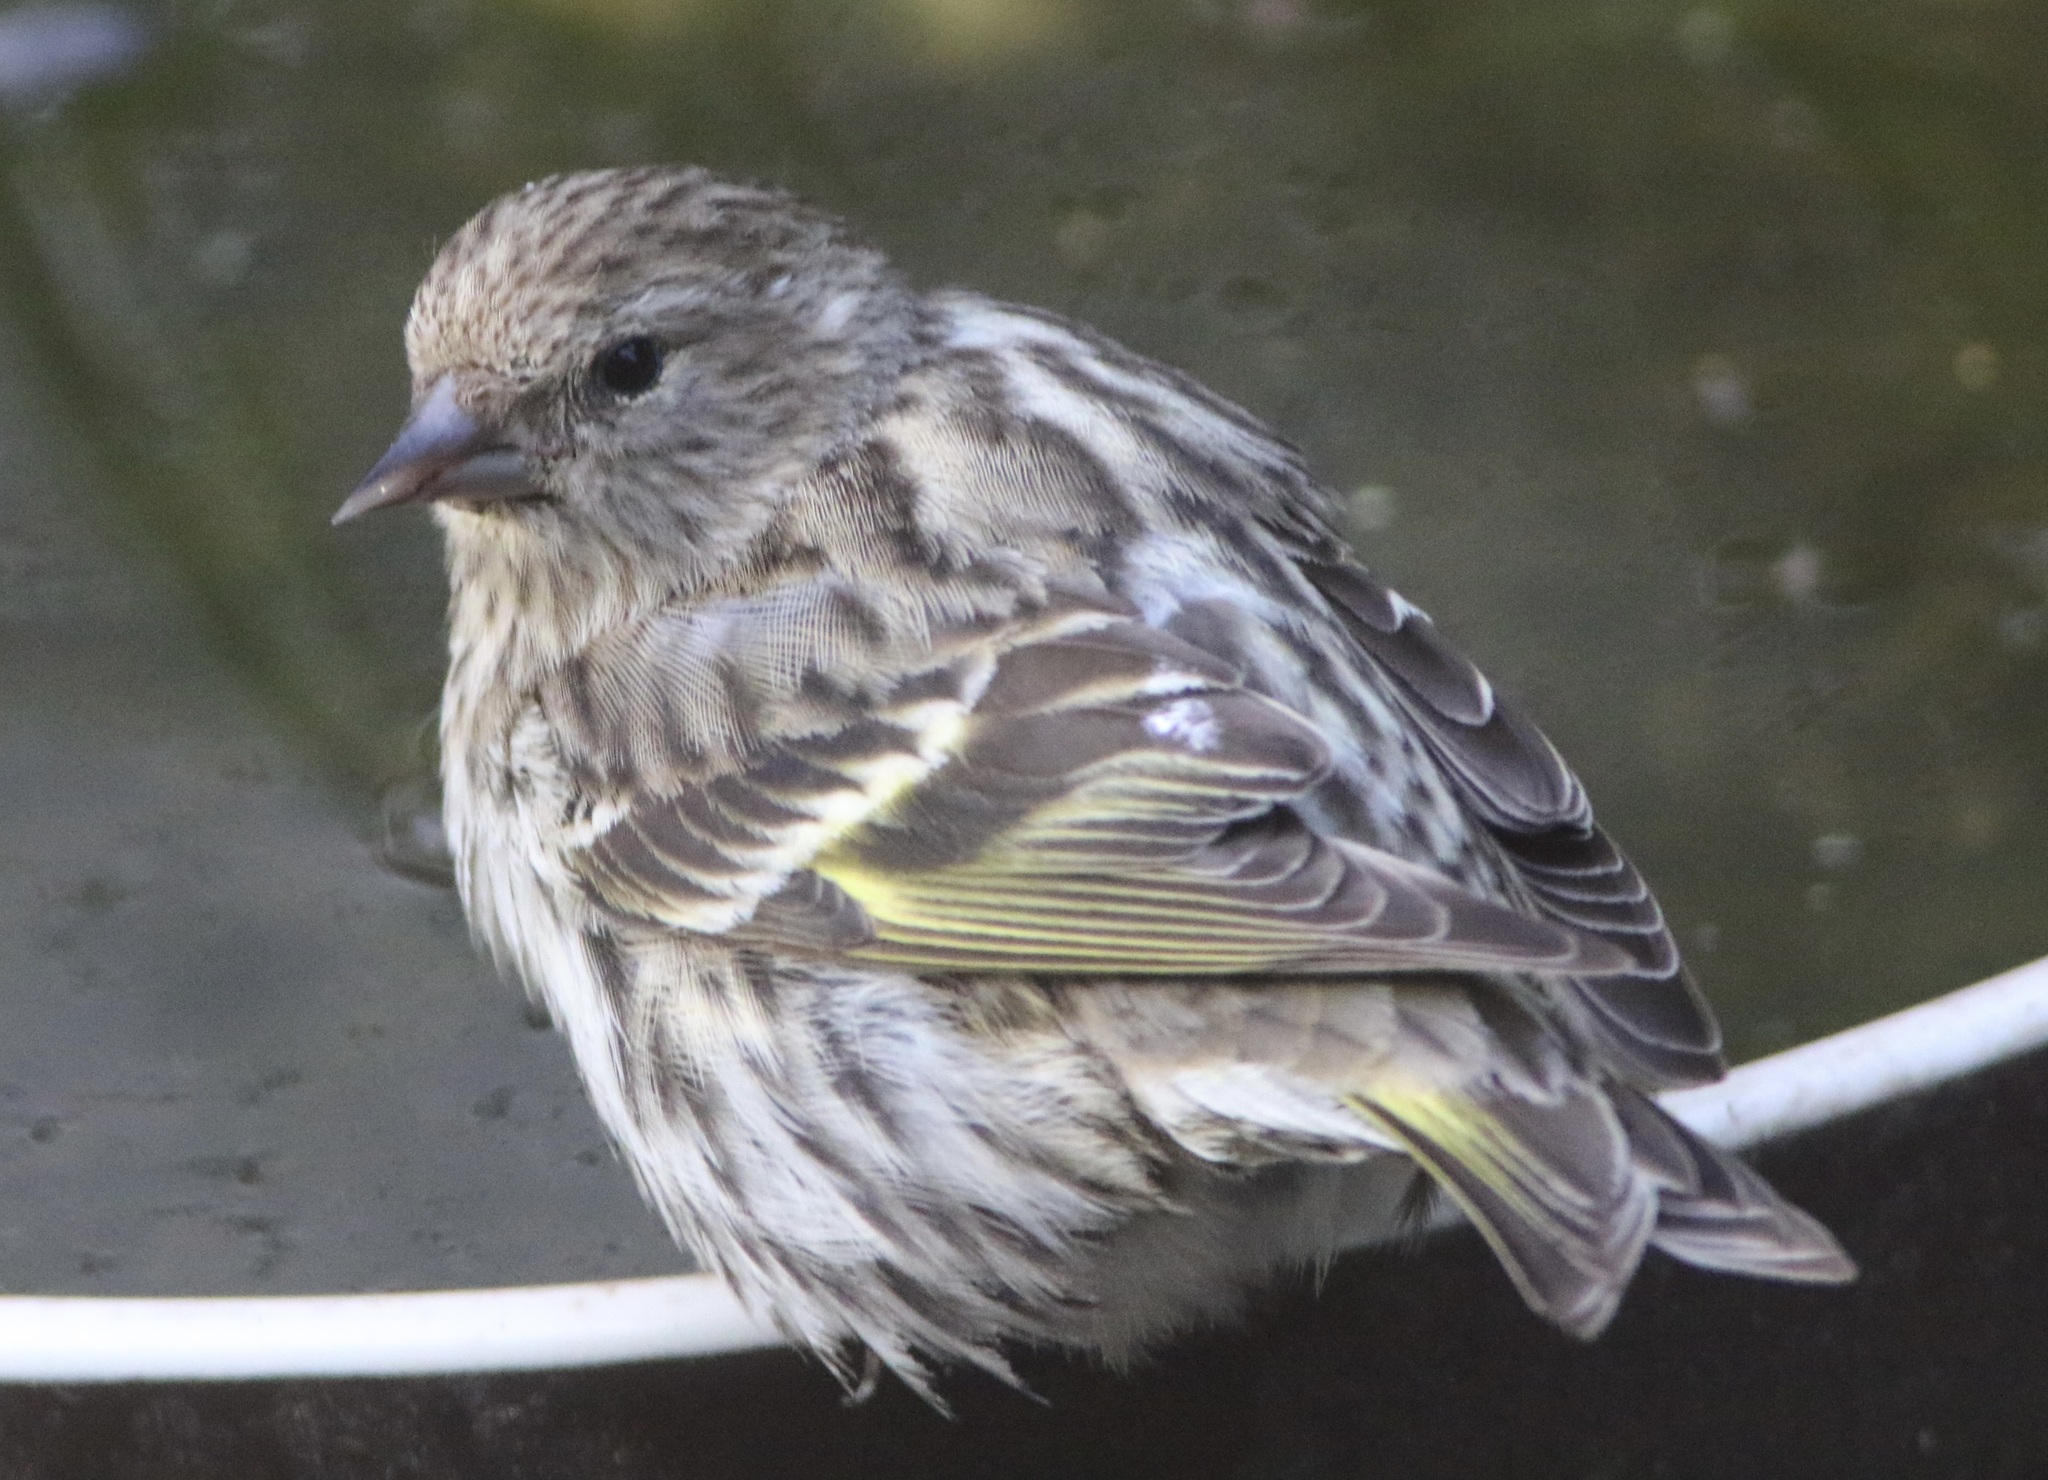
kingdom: Animalia
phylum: Chordata
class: Aves
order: Passeriformes
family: Fringillidae
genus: Spinus
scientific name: Spinus pinus
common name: Pine siskin
